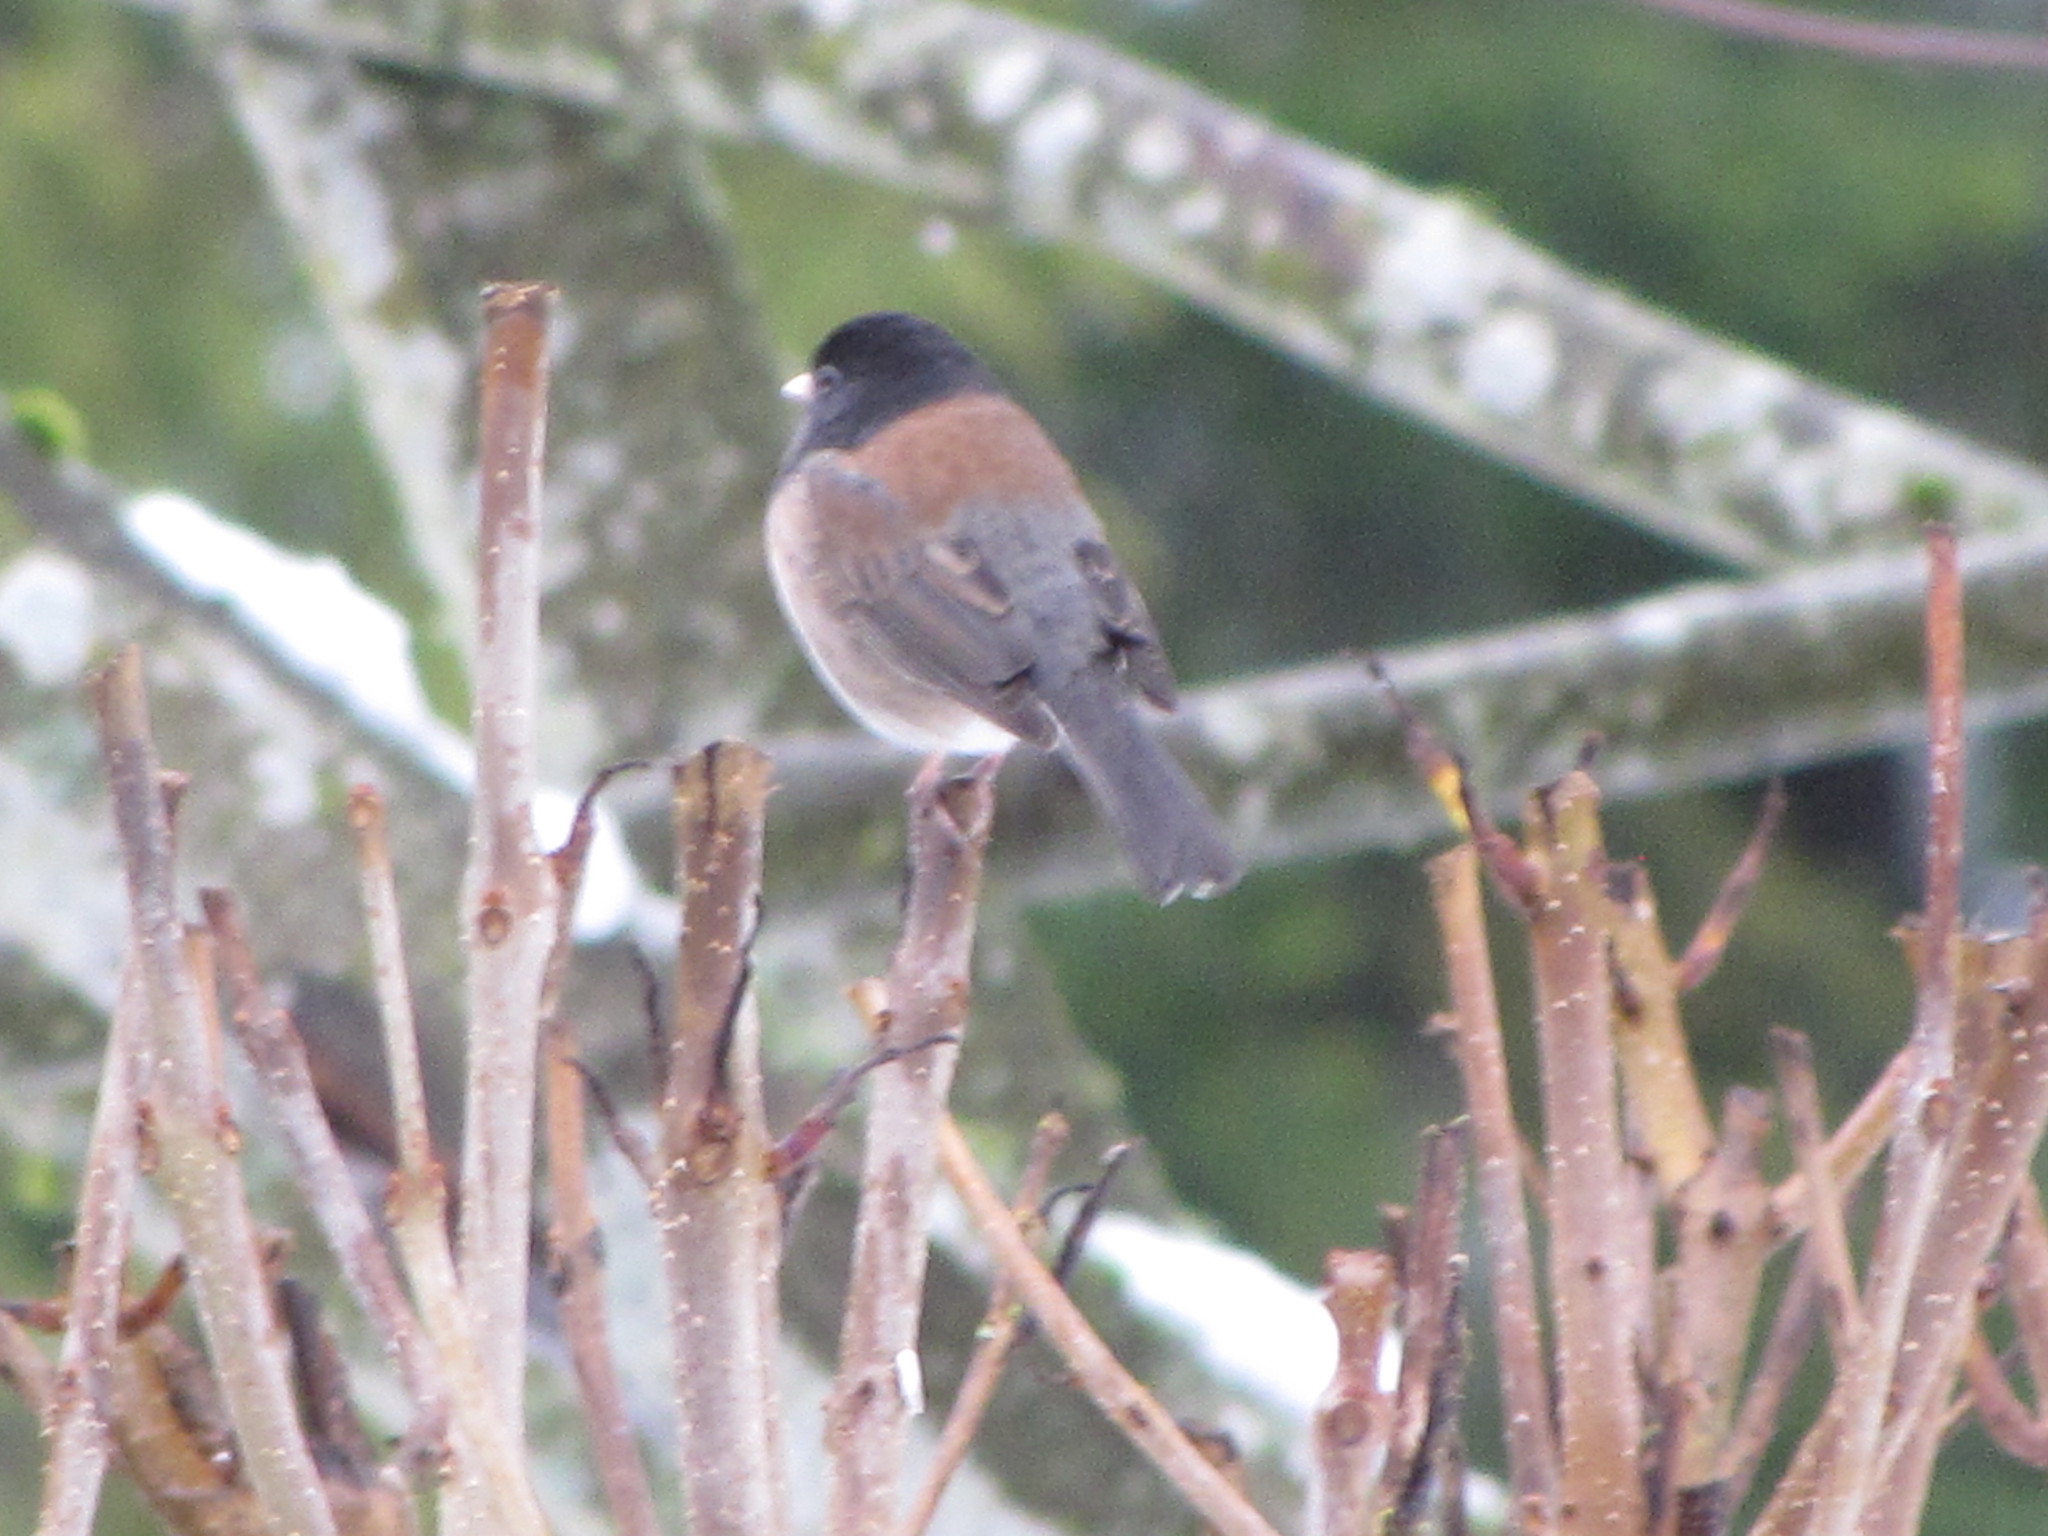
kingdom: Animalia
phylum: Chordata
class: Aves
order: Passeriformes
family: Passerellidae
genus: Junco
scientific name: Junco hyemalis
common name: Dark-eyed junco
